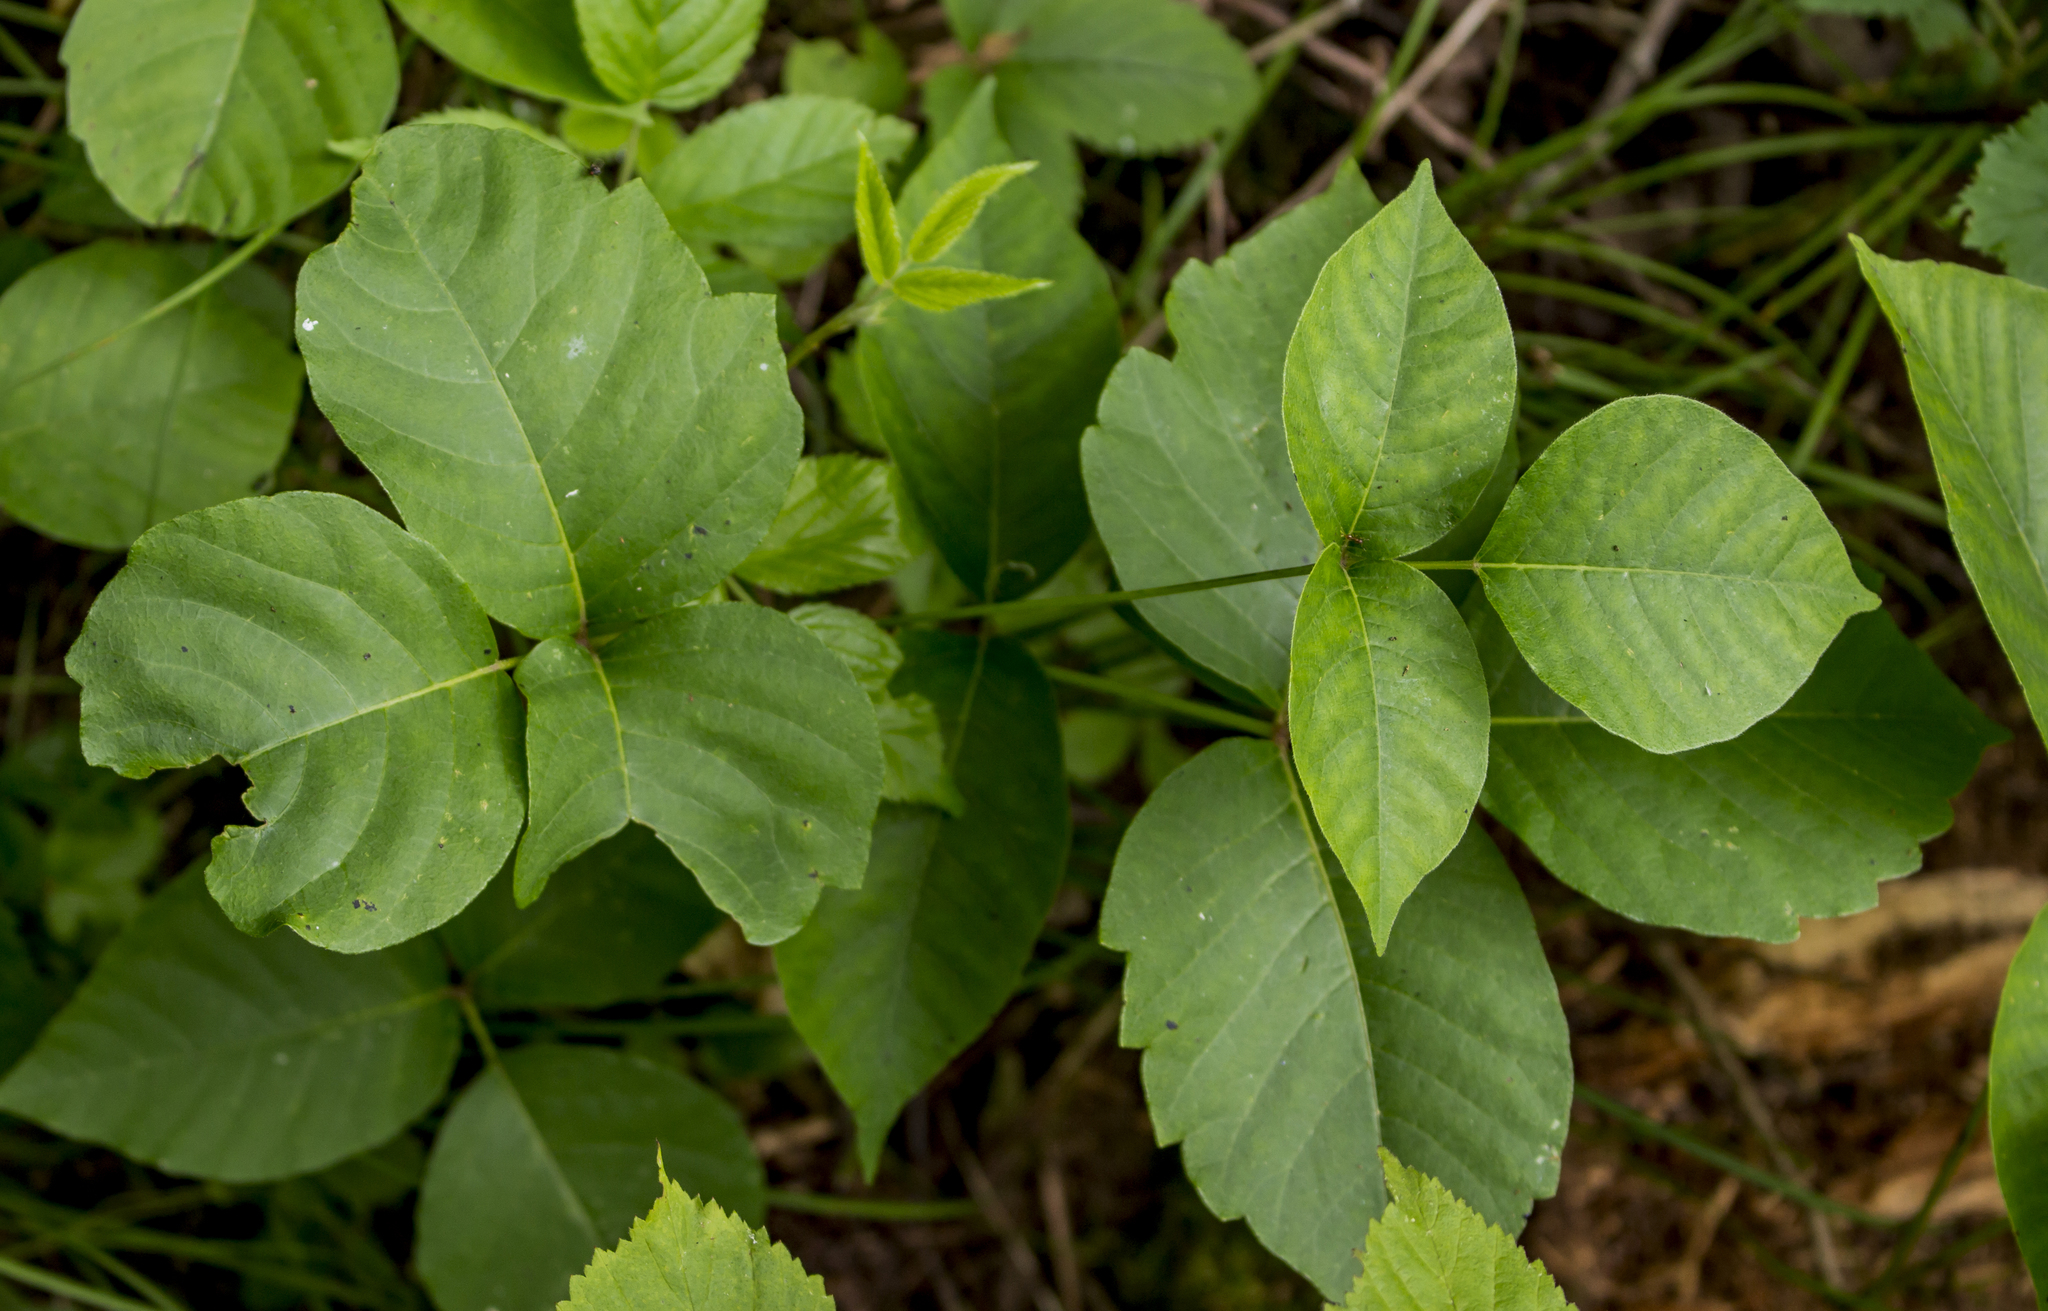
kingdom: Plantae
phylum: Tracheophyta
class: Magnoliopsida
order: Sapindales
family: Anacardiaceae
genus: Toxicodendron
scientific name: Toxicodendron rydbergii
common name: Rydberg's poison-ivy
